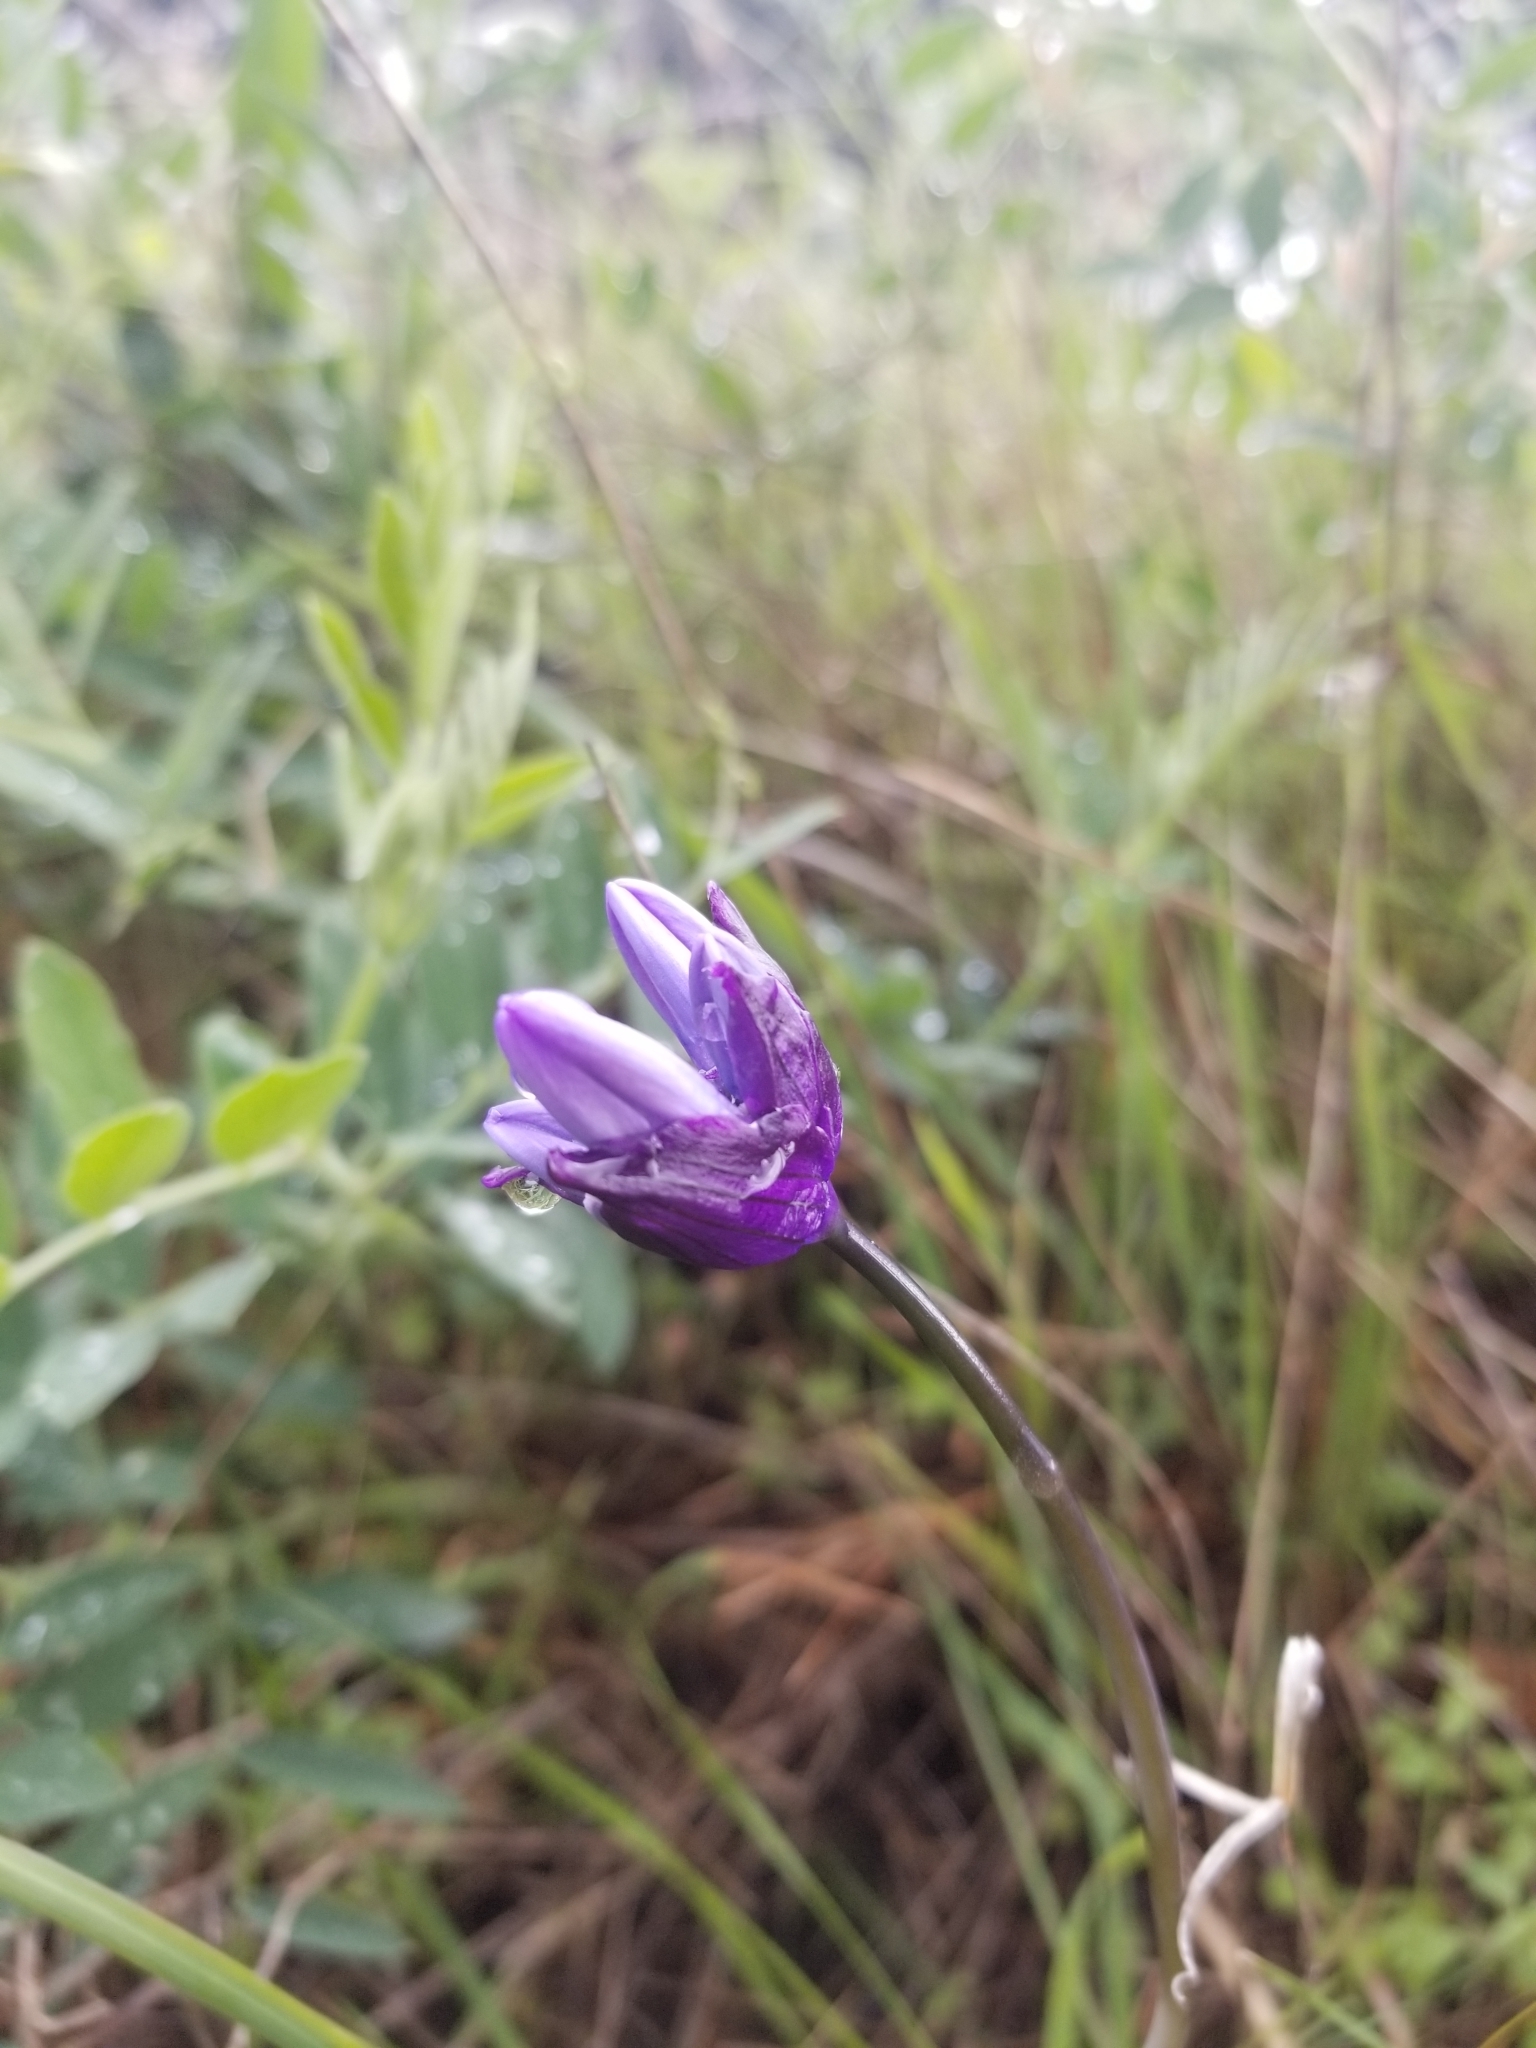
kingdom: Plantae
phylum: Tracheophyta
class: Liliopsida
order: Asparagales
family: Asparagaceae
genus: Dipterostemon
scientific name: Dipterostemon capitatus
